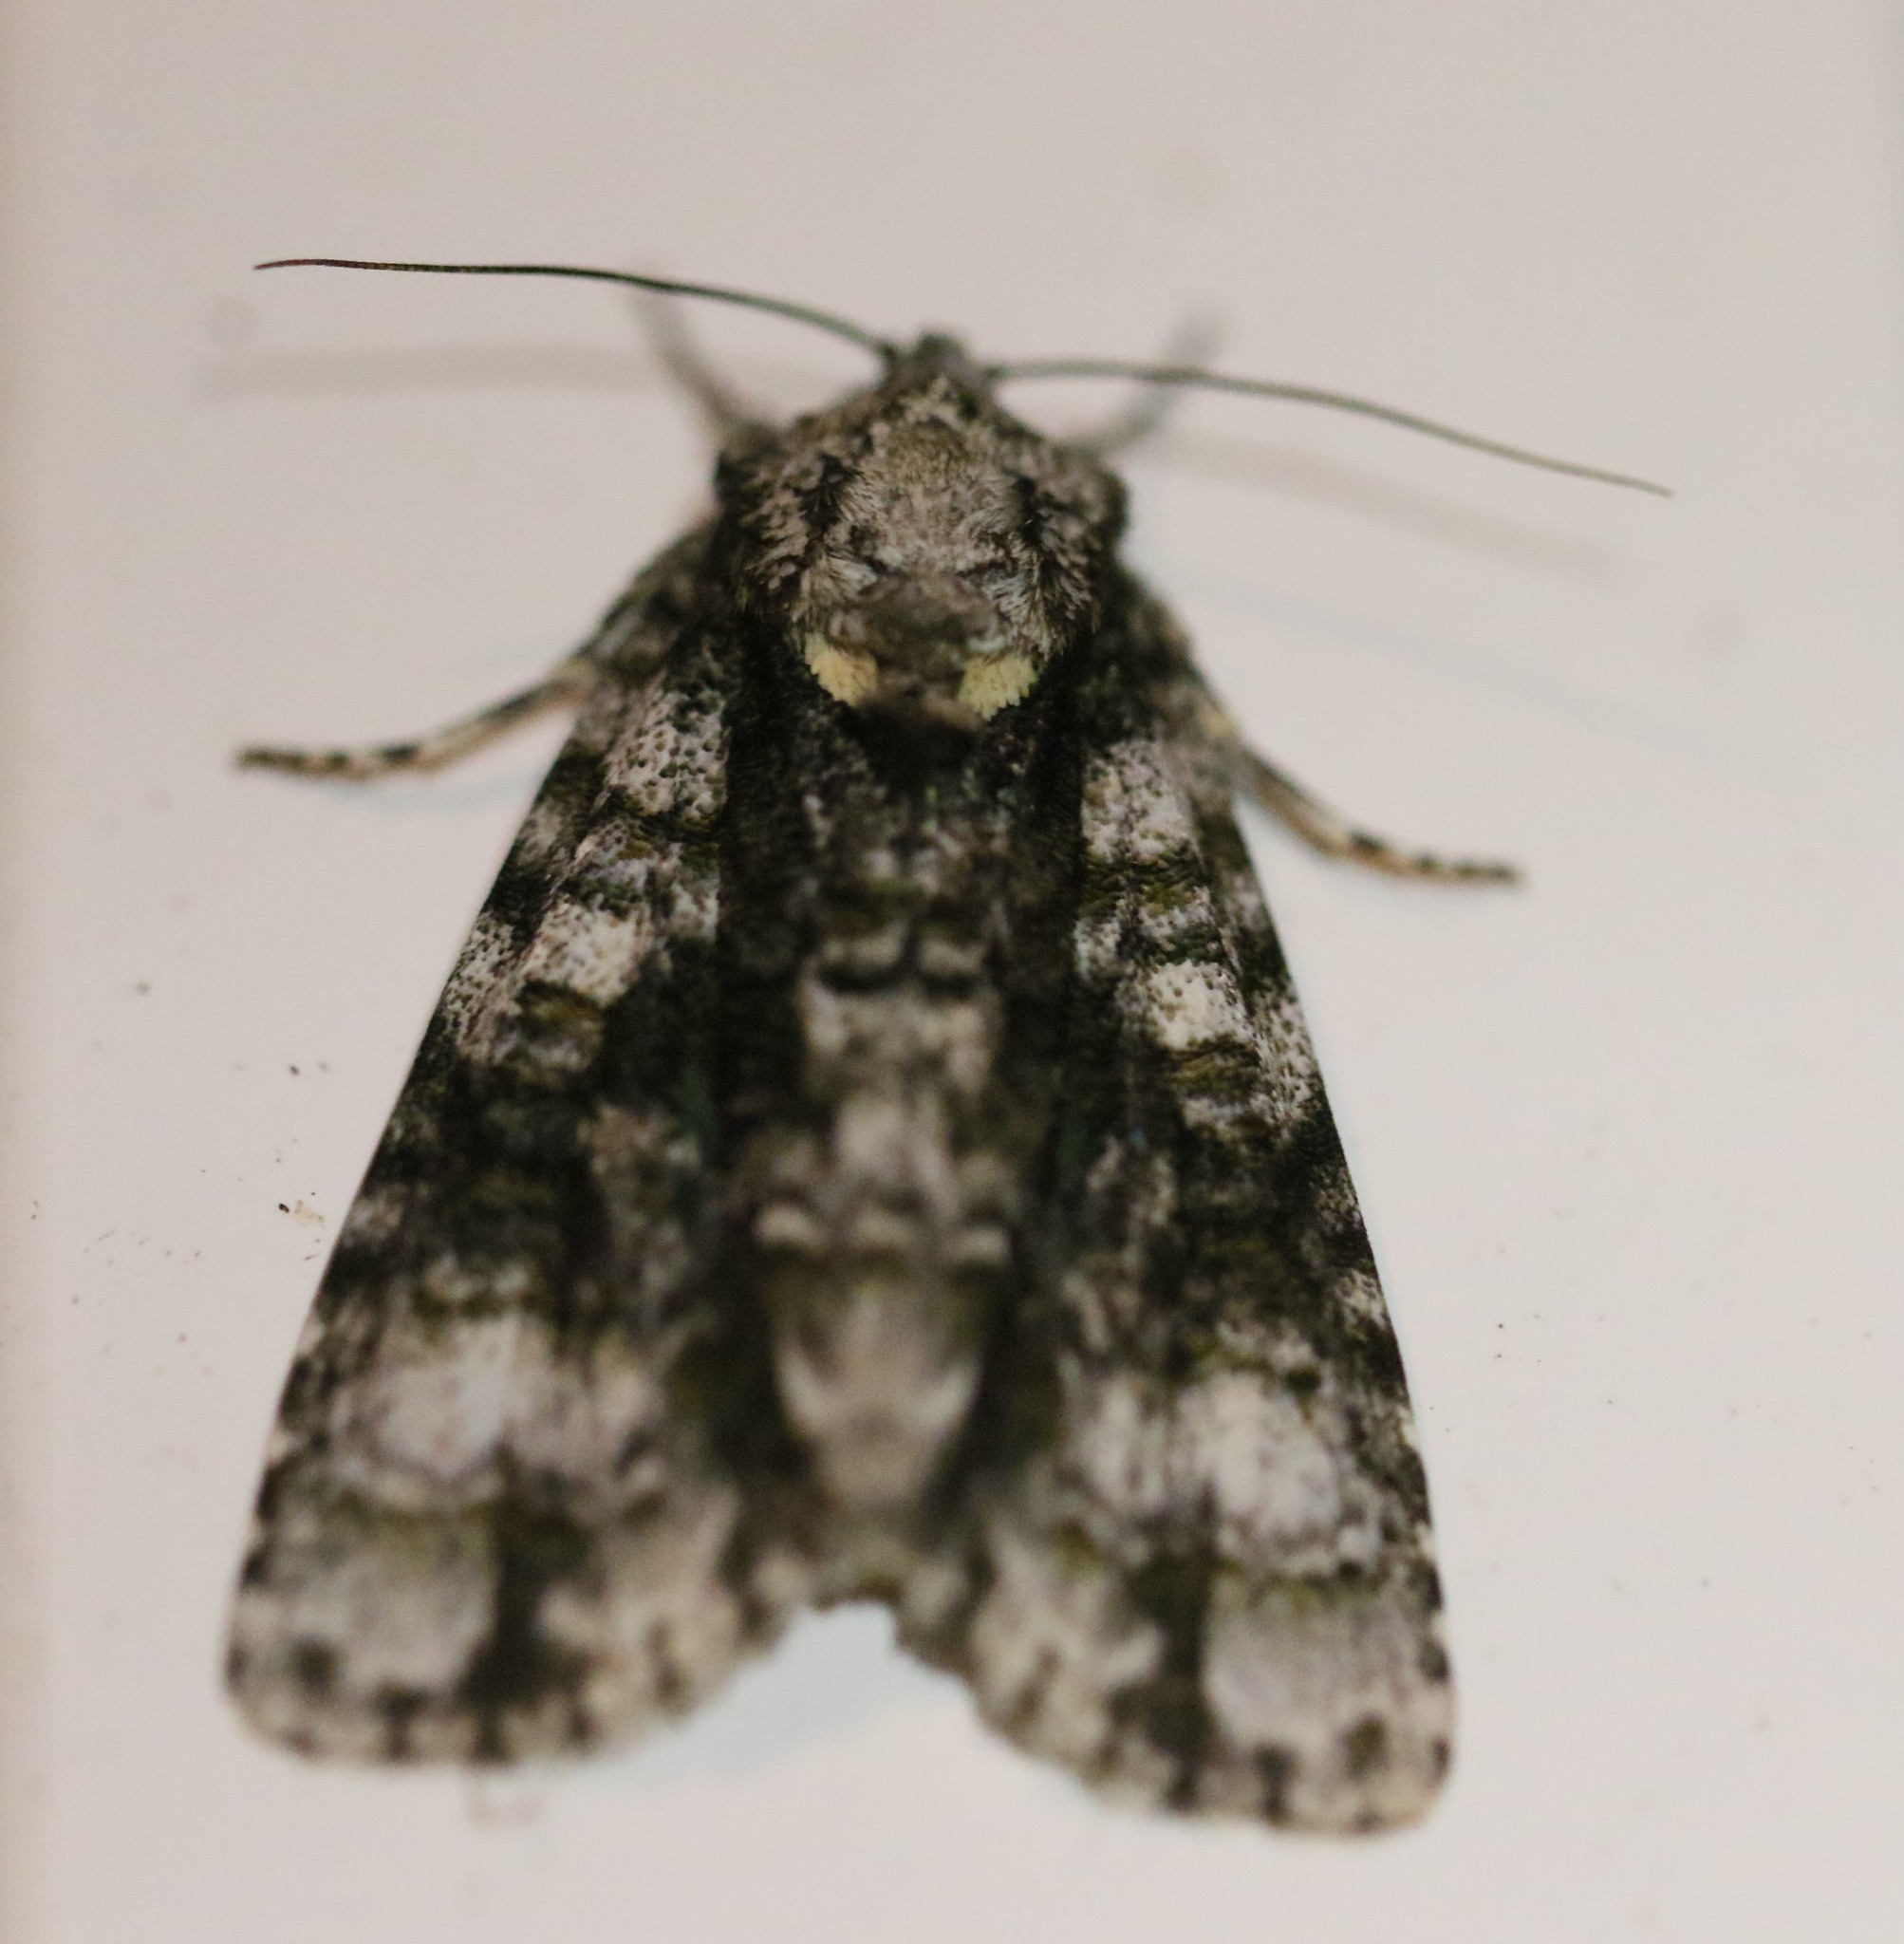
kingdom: Animalia
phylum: Arthropoda
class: Insecta
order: Lepidoptera
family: Noctuidae
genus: Acronicta
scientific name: Acronicta superans
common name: Splendid dagger
